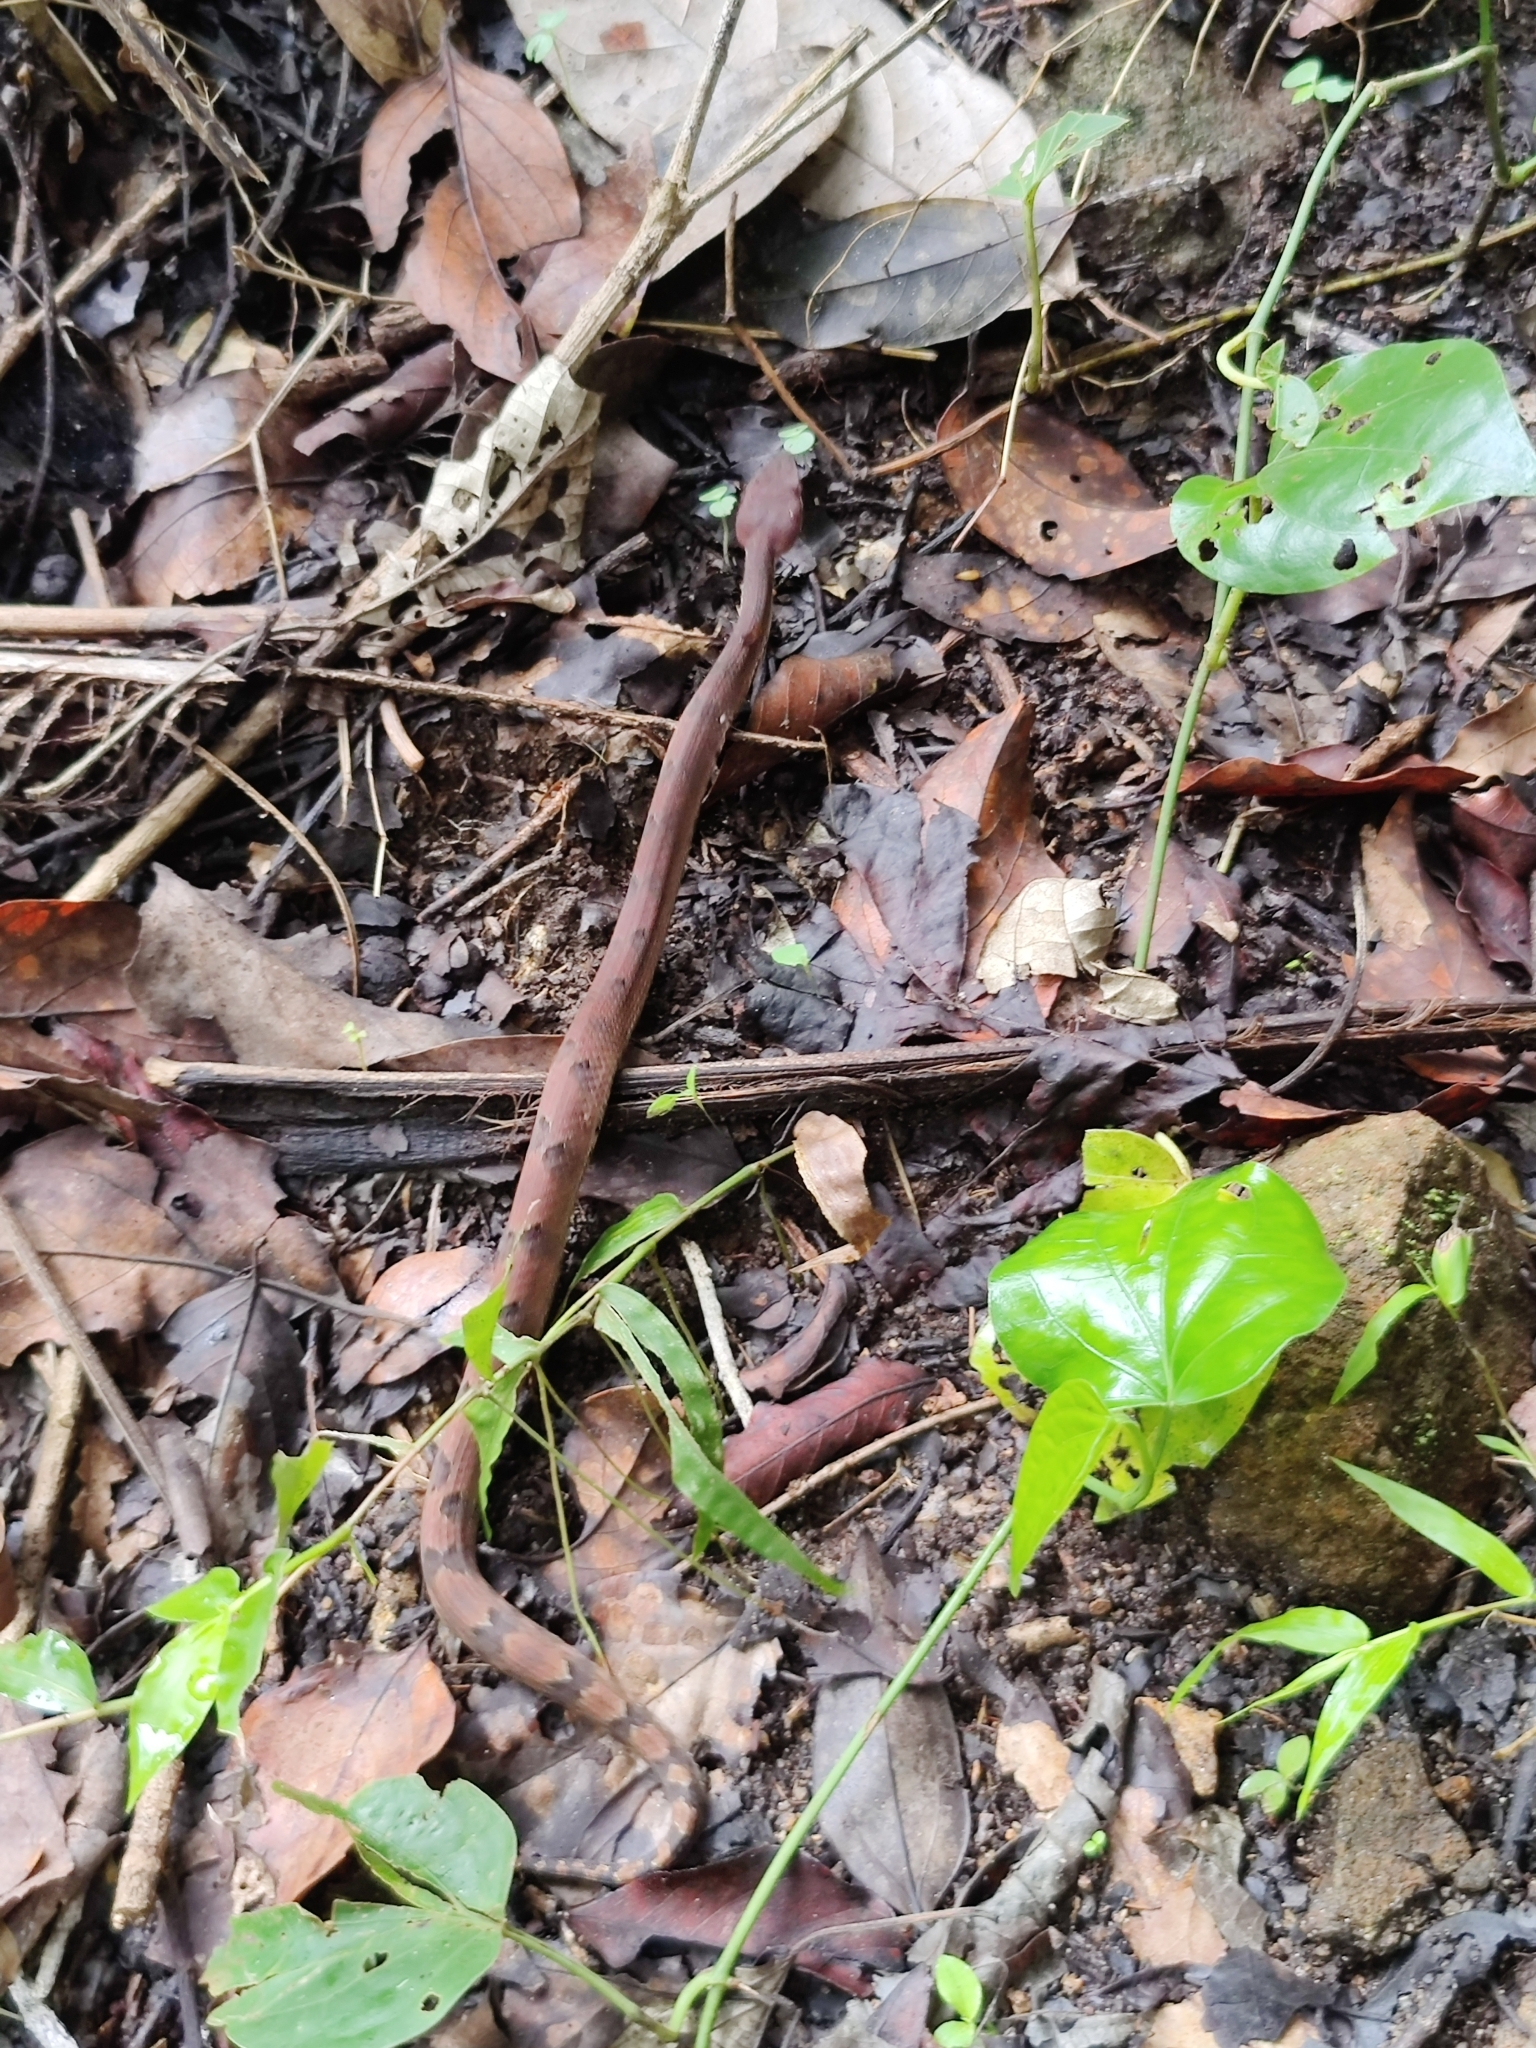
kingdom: Animalia
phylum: Chordata
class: Squamata
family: Viperidae
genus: Hypnale
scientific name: Hypnale hypnale
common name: Hump-nosed moccasin
